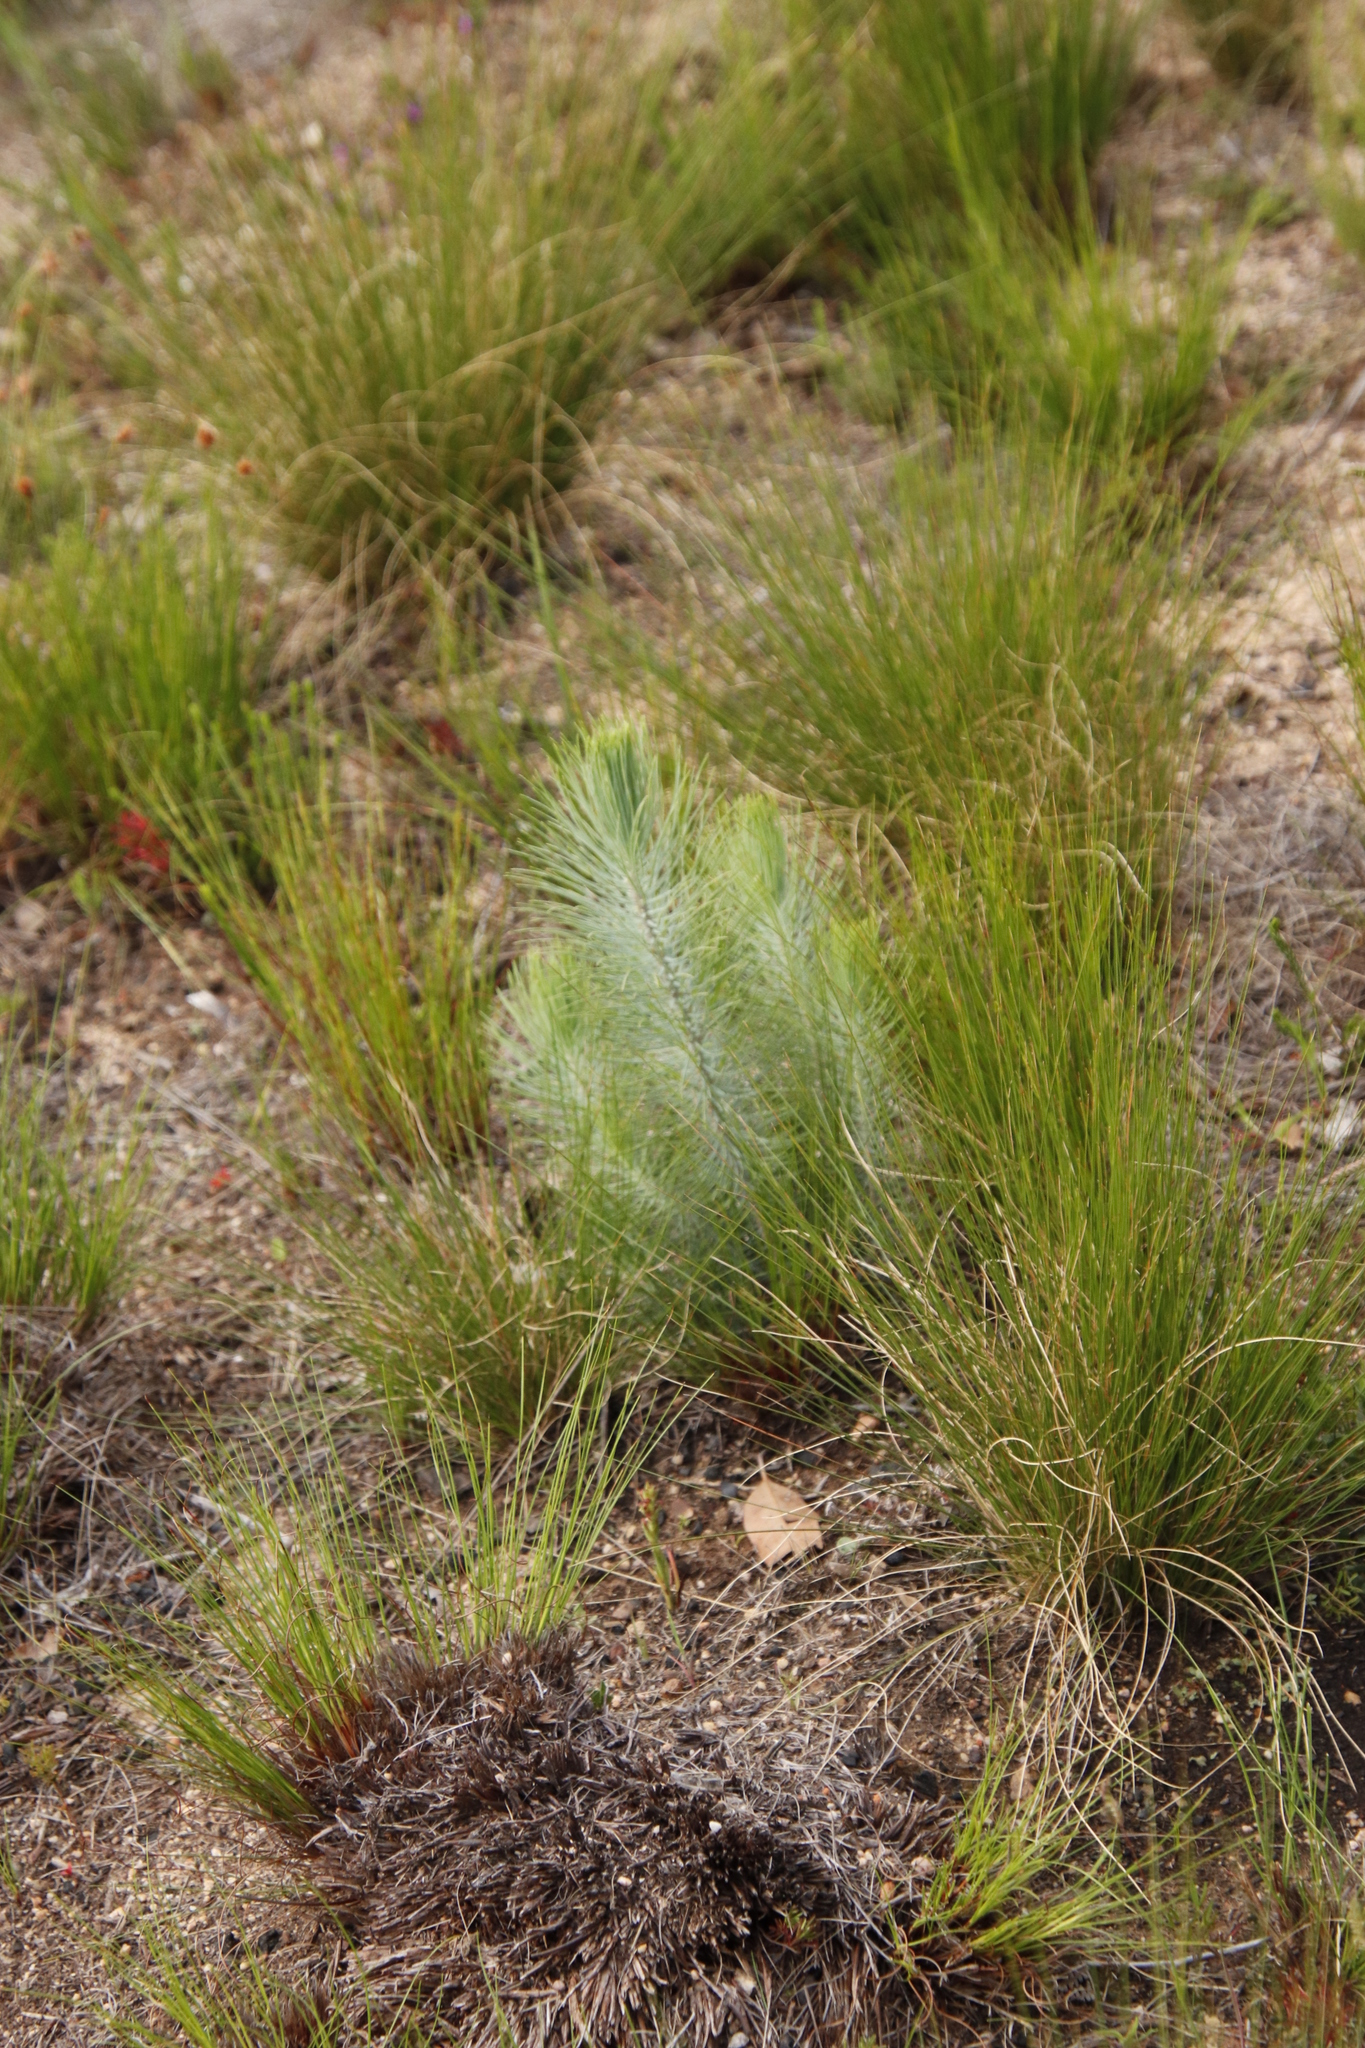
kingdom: Plantae
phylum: Tracheophyta
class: Pinopsida
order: Pinales
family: Pinaceae
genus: Pinus
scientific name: Pinus canariensis
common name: Canary islands pine
